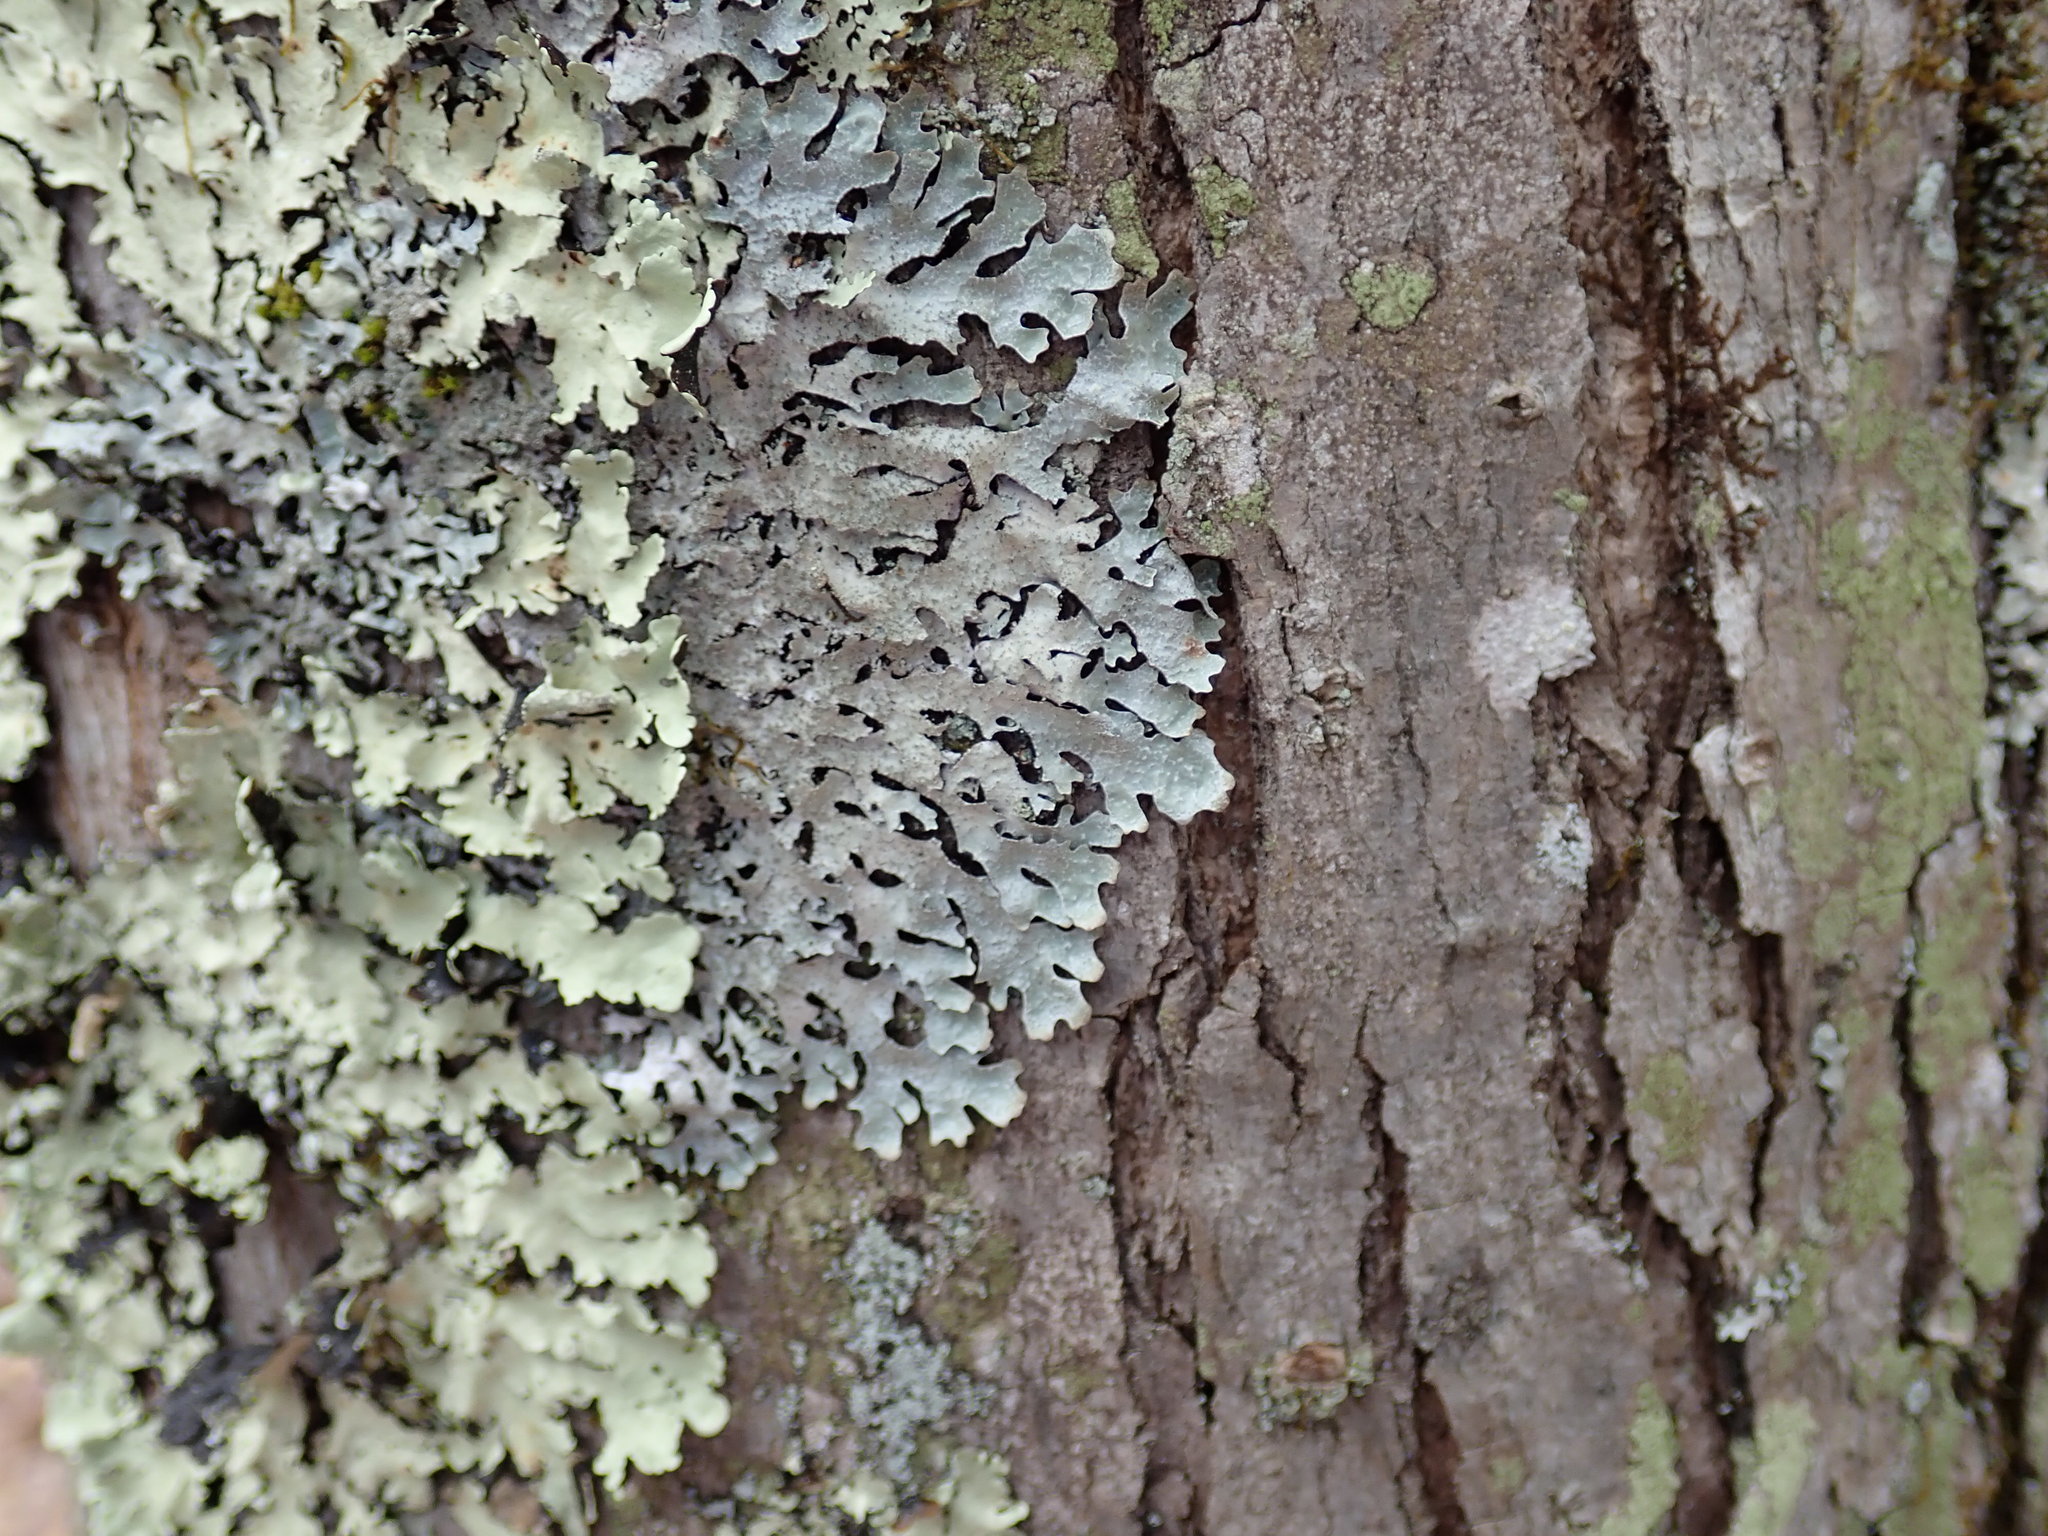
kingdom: Fungi
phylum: Ascomycota
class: Lecanoromycetes
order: Lecanorales
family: Parmeliaceae
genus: Parmelia
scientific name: Parmelia sulcata
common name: Netted shield lichen
